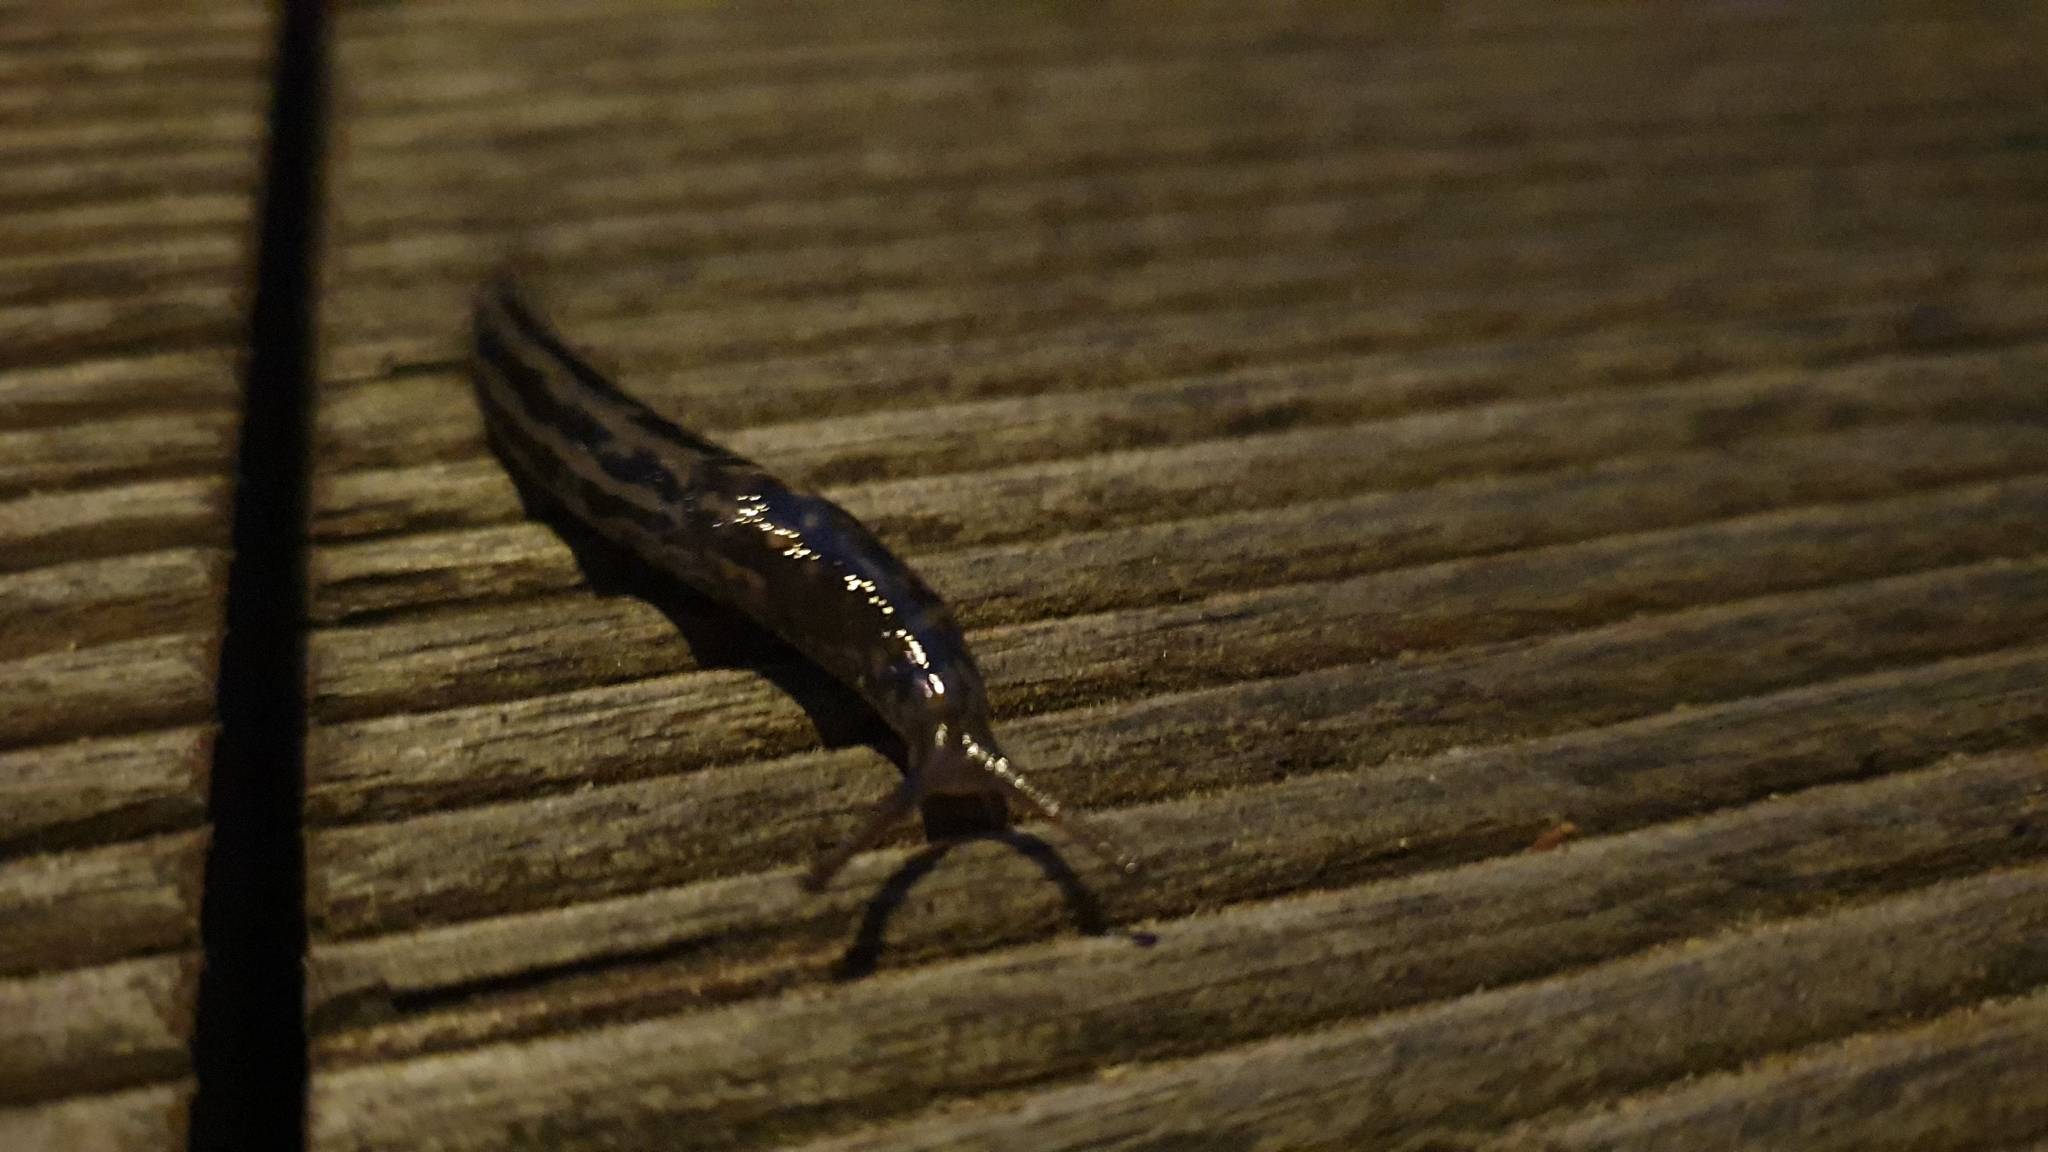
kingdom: Animalia
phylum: Mollusca
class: Gastropoda
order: Stylommatophora
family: Limacidae
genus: Limax
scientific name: Limax maximus
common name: Great grey slug
